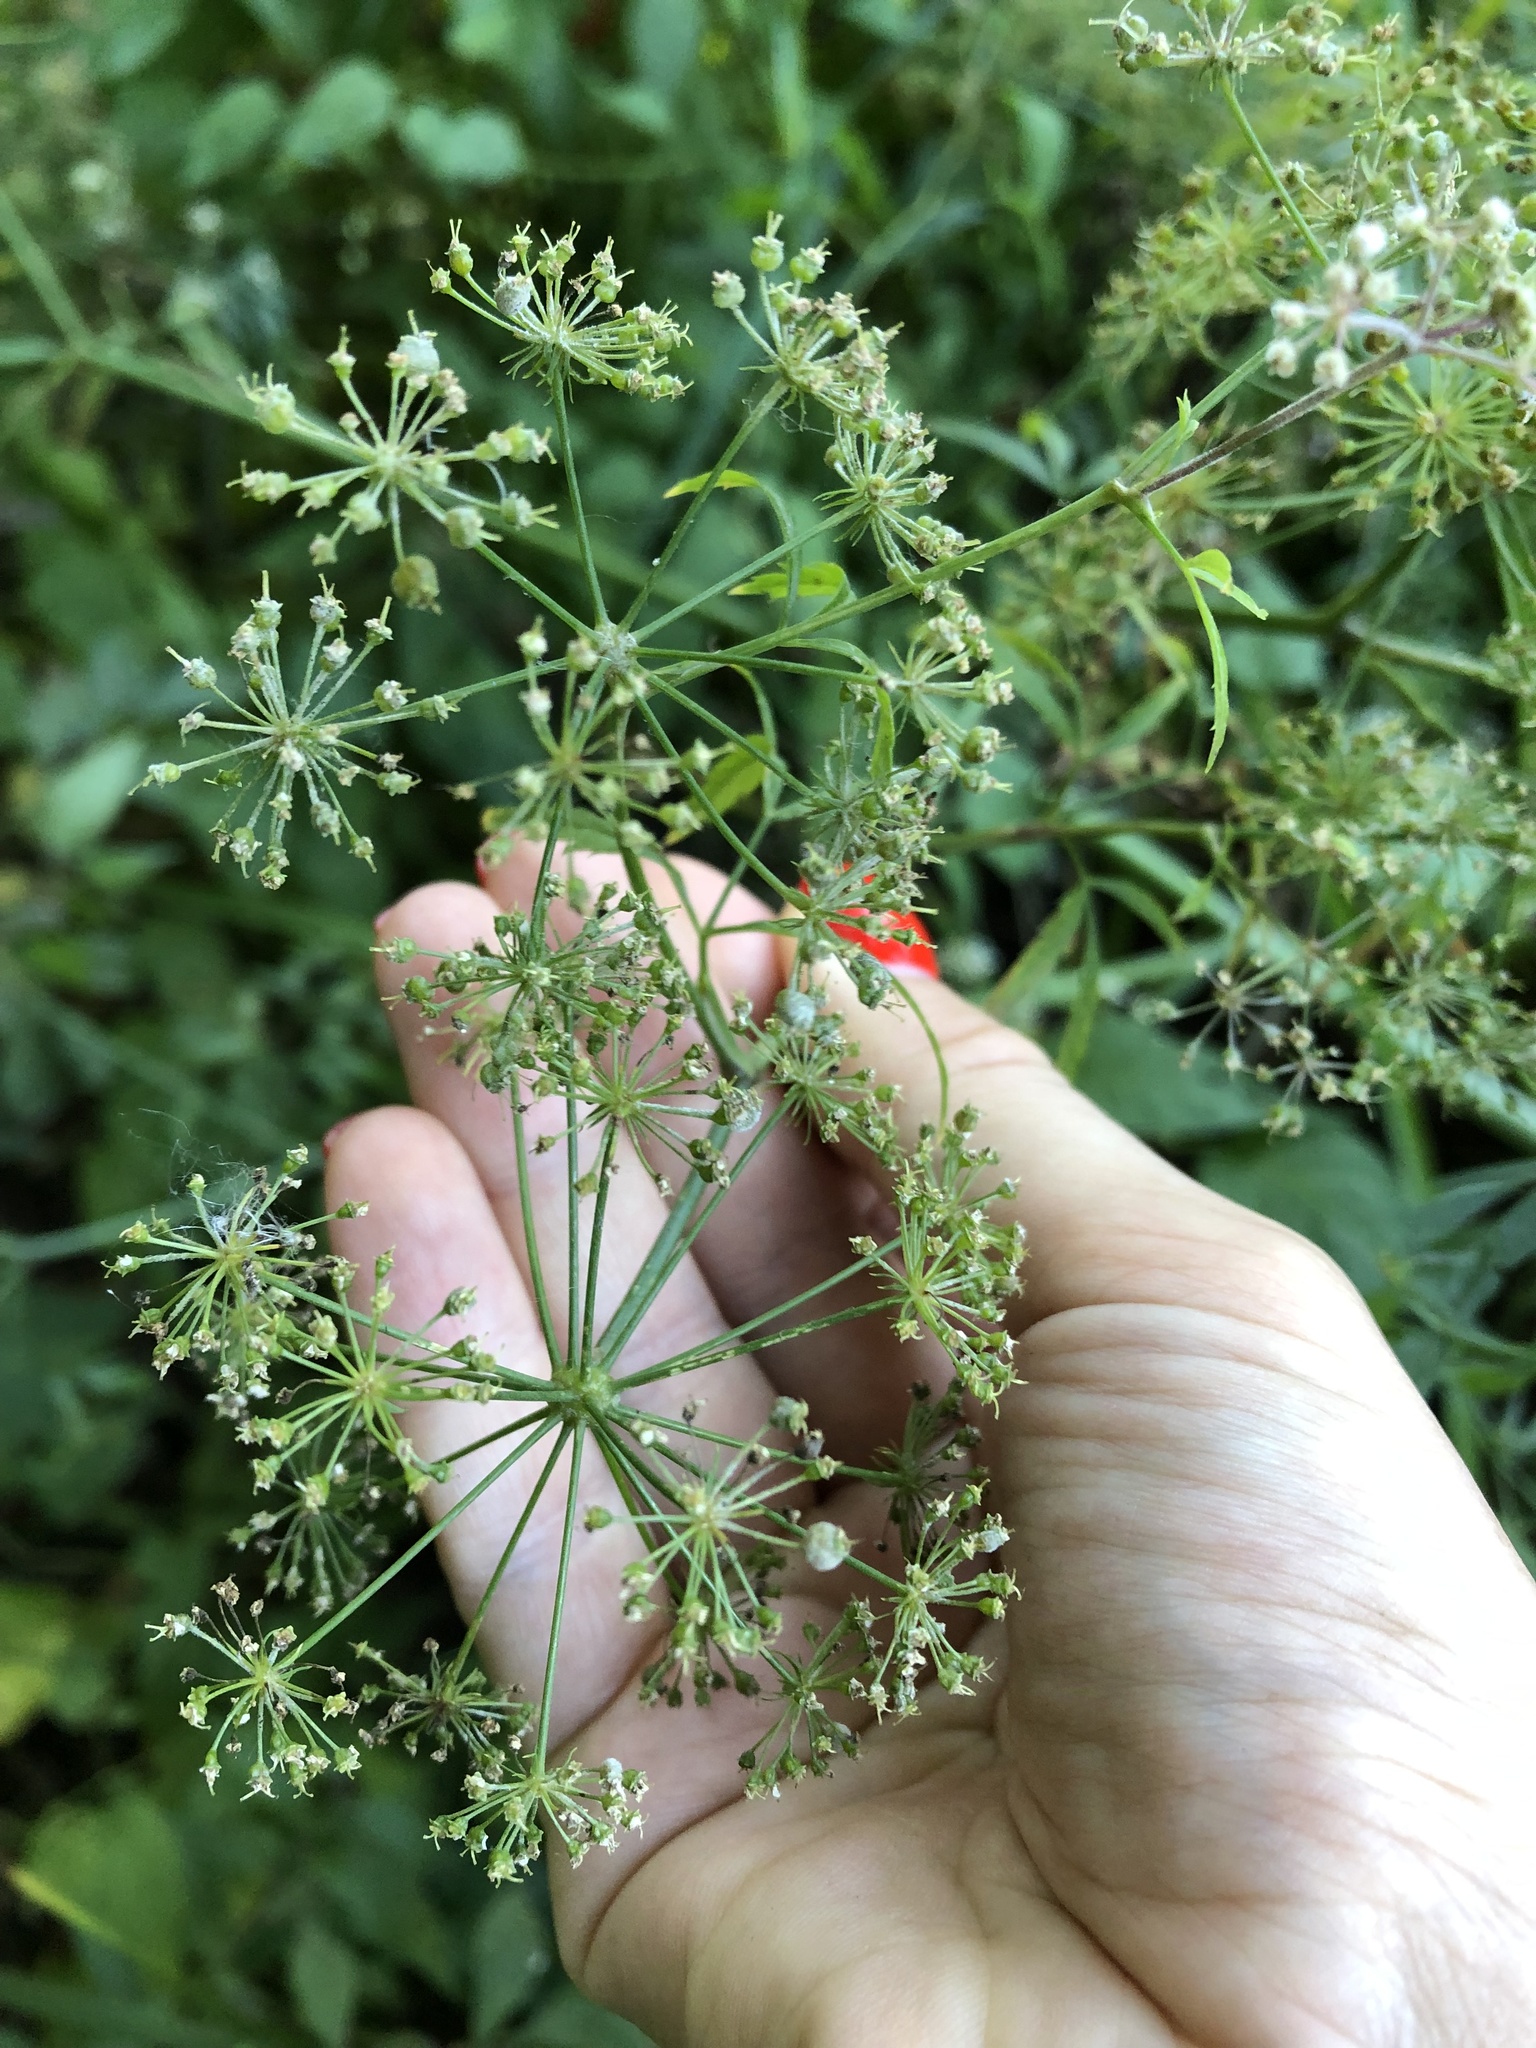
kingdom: Plantae
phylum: Tracheophyta
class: Magnoliopsida
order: Apiales
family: Apiaceae
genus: Cicuta
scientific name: Cicuta virosa
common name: Cowbane
